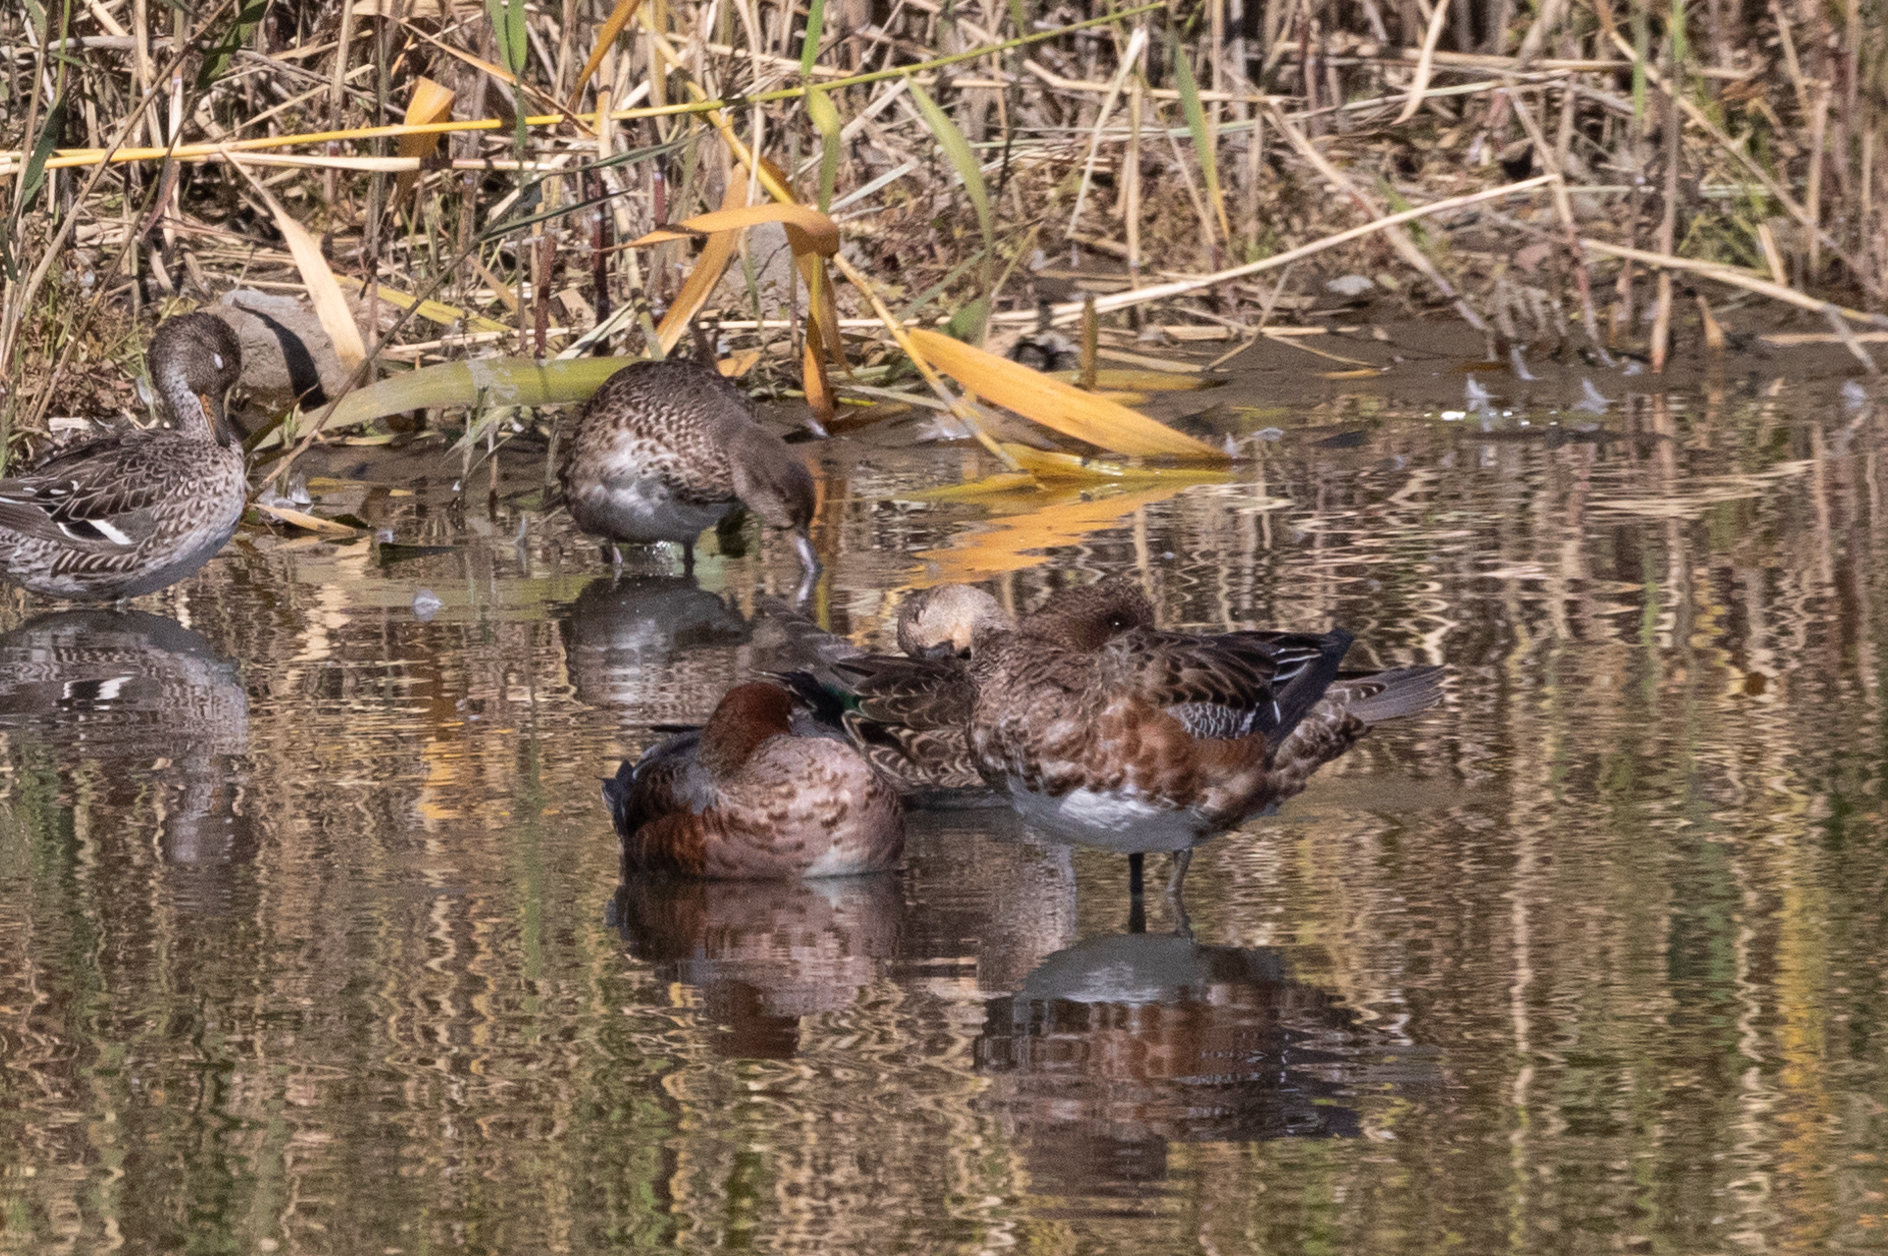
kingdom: Animalia
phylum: Chordata
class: Aves
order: Anseriformes
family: Anatidae
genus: Mareca
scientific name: Mareca penelope
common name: Eurasian wigeon
